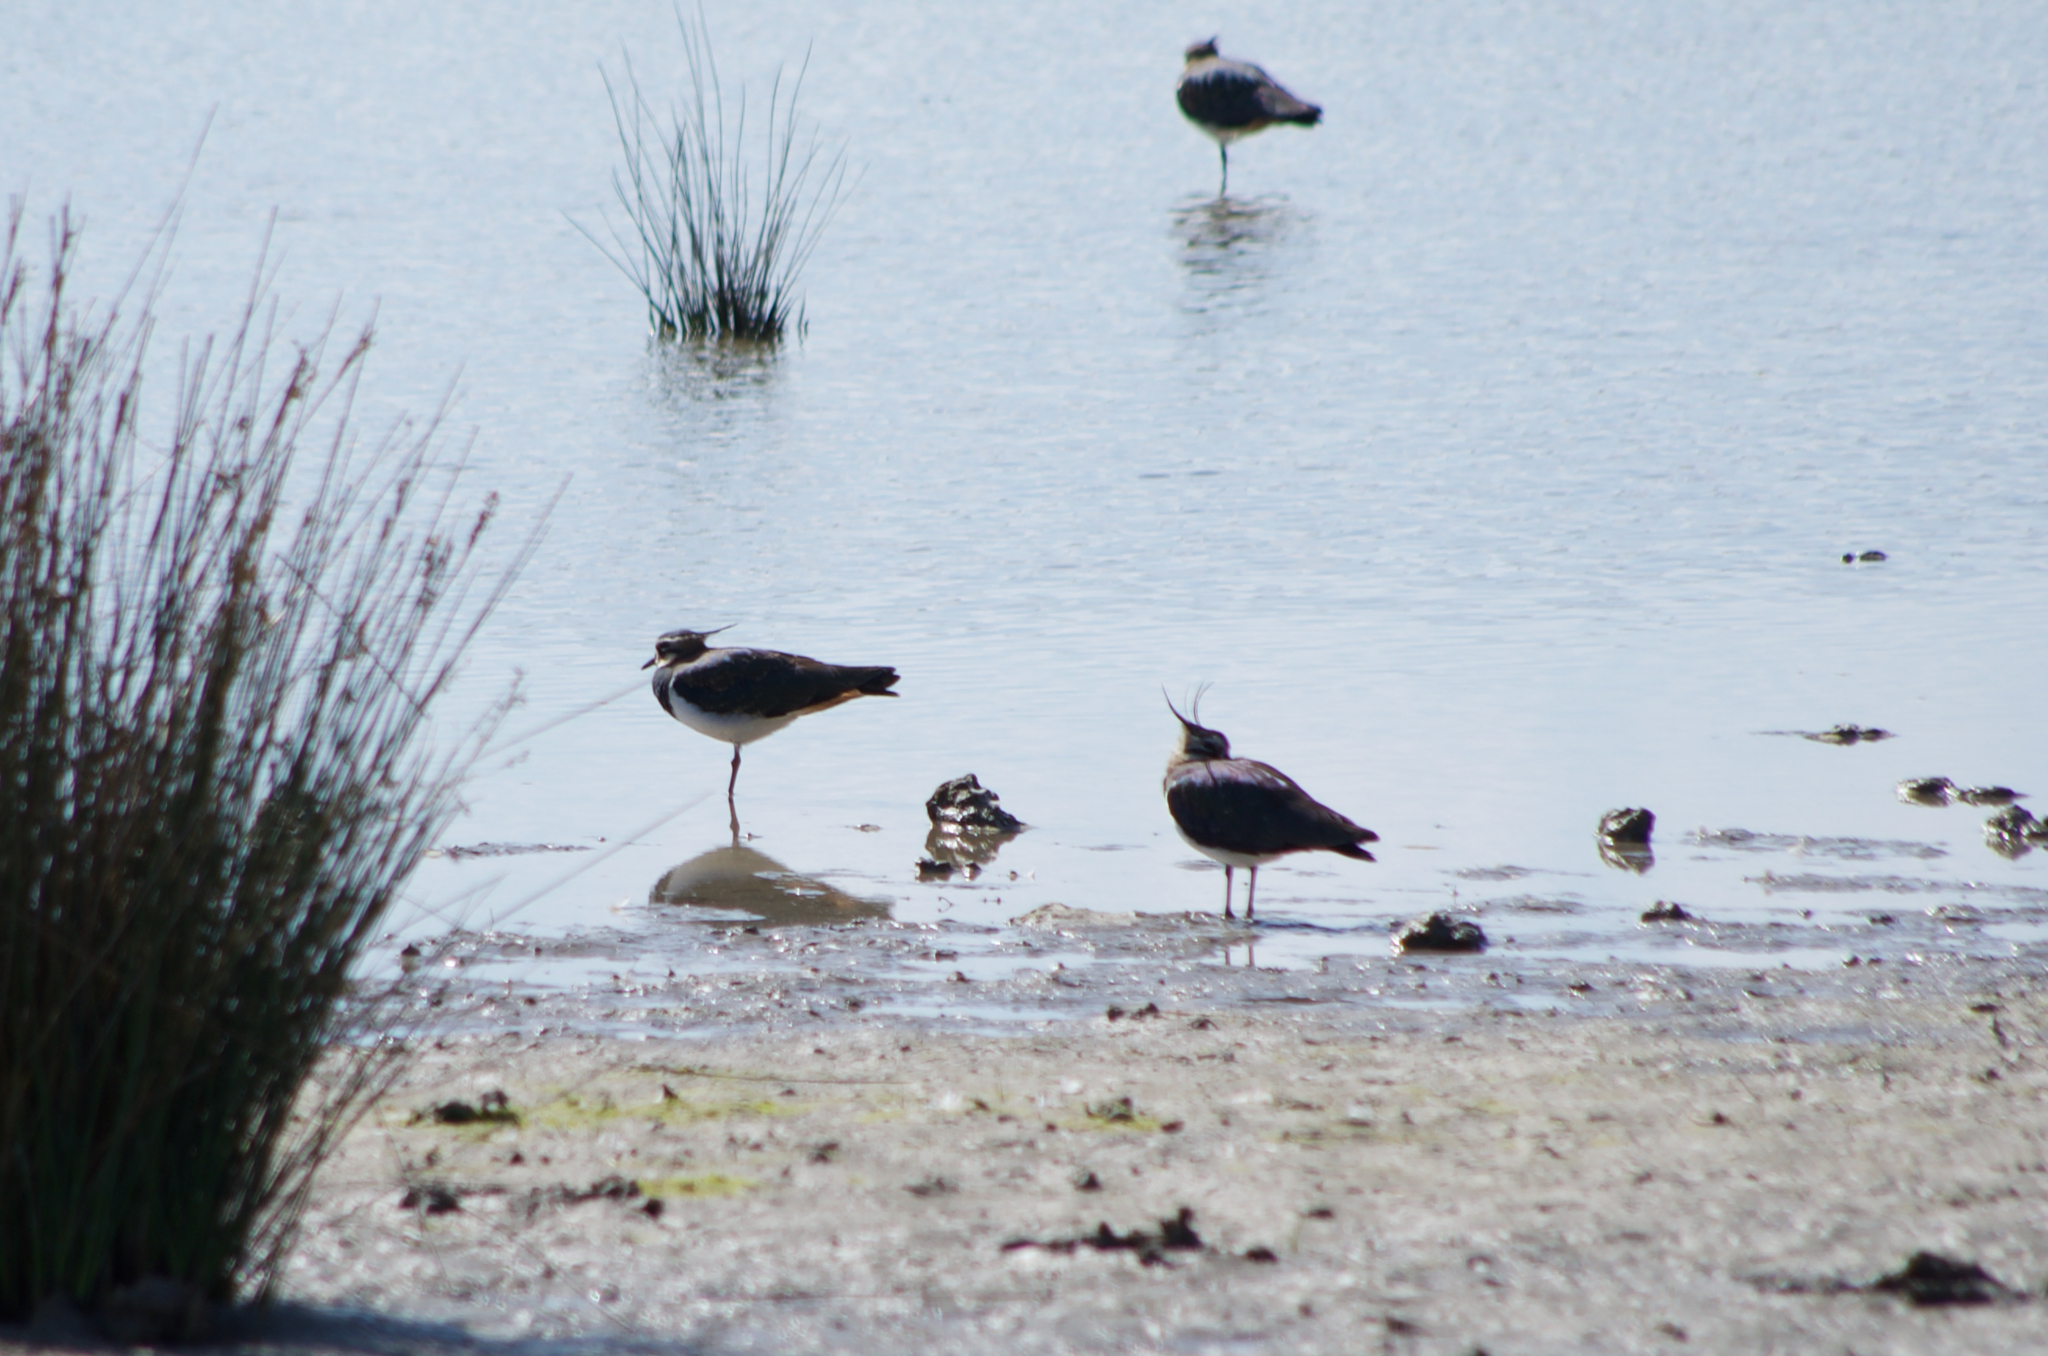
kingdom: Animalia
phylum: Chordata
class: Aves
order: Charadriiformes
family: Charadriidae
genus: Vanellus
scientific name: Vanellus vanellus
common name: Northern lapwing
